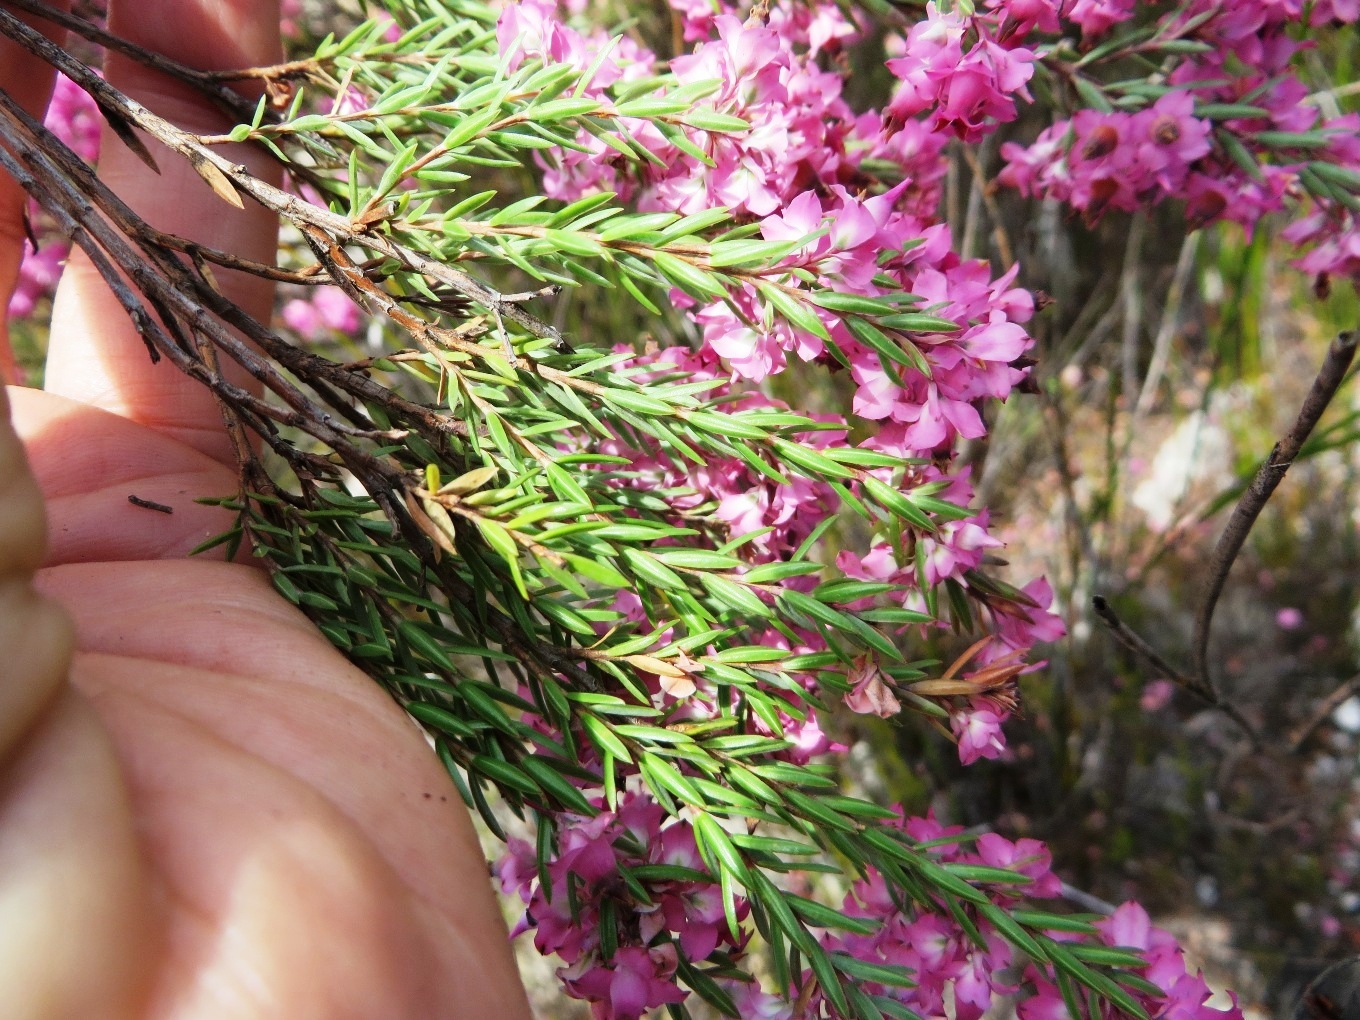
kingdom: Plantae
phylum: Tracheophyta
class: Magnoliopsida
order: Ericales
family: Ericaceae
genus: Erica
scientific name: Erica corifolia
